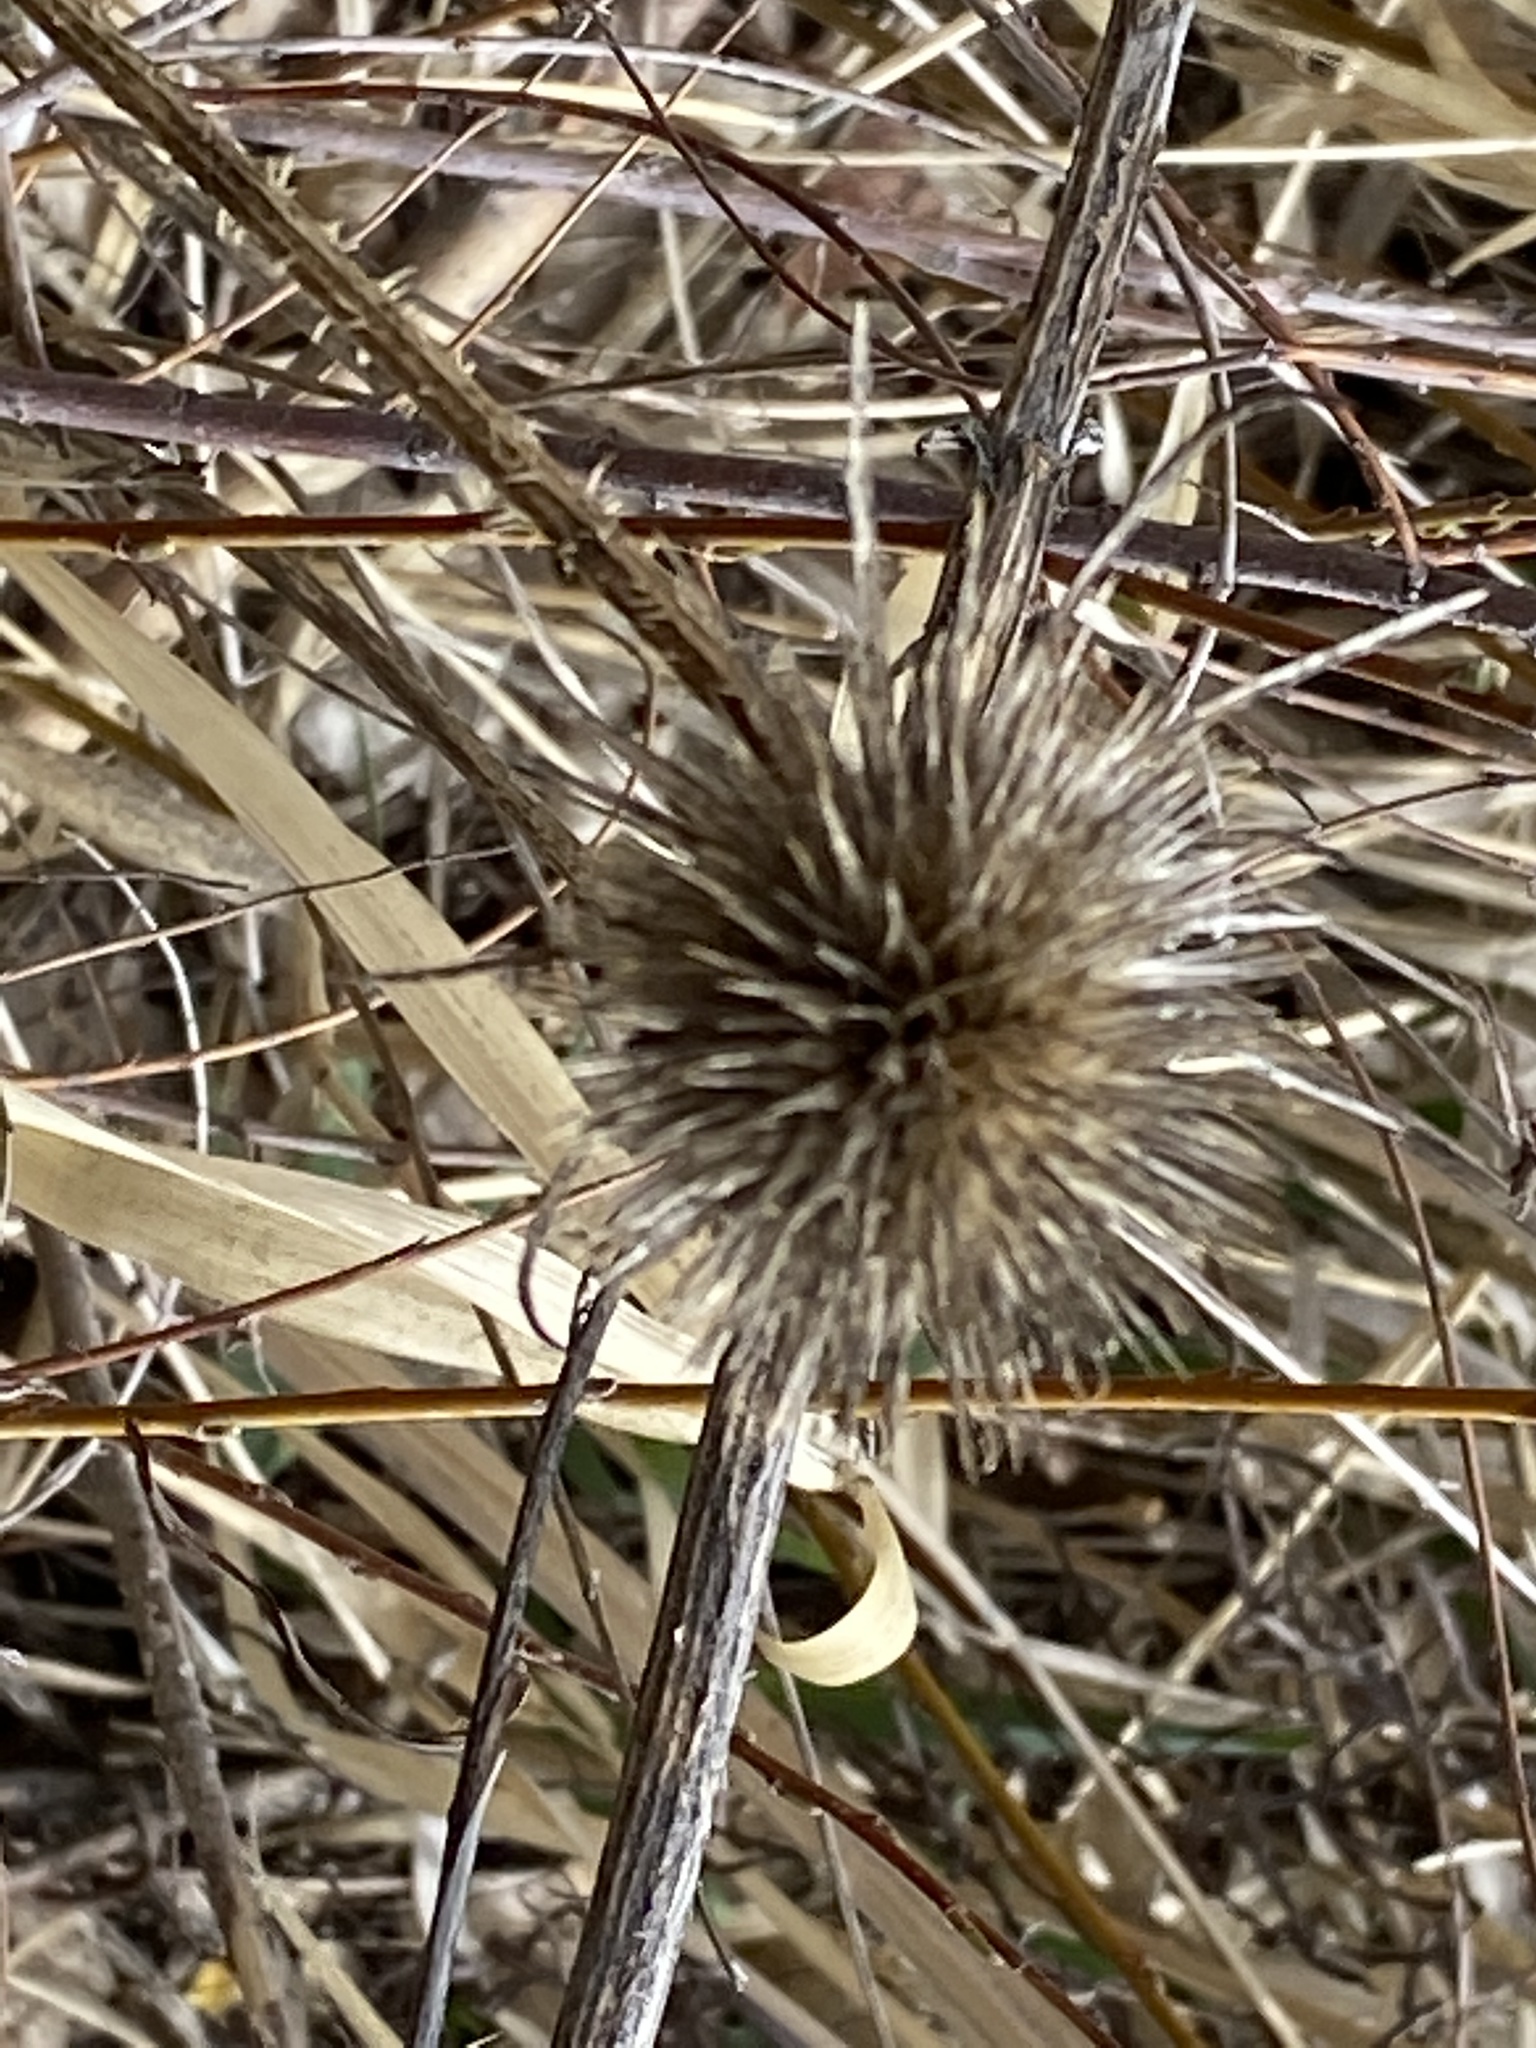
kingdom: Plantae
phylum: Tracheophyta
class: Magnoliopsida
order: Dipsacales
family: Caprifoliaceae
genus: Dipsacus
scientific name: Dipsacus fullonum
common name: Teasel
